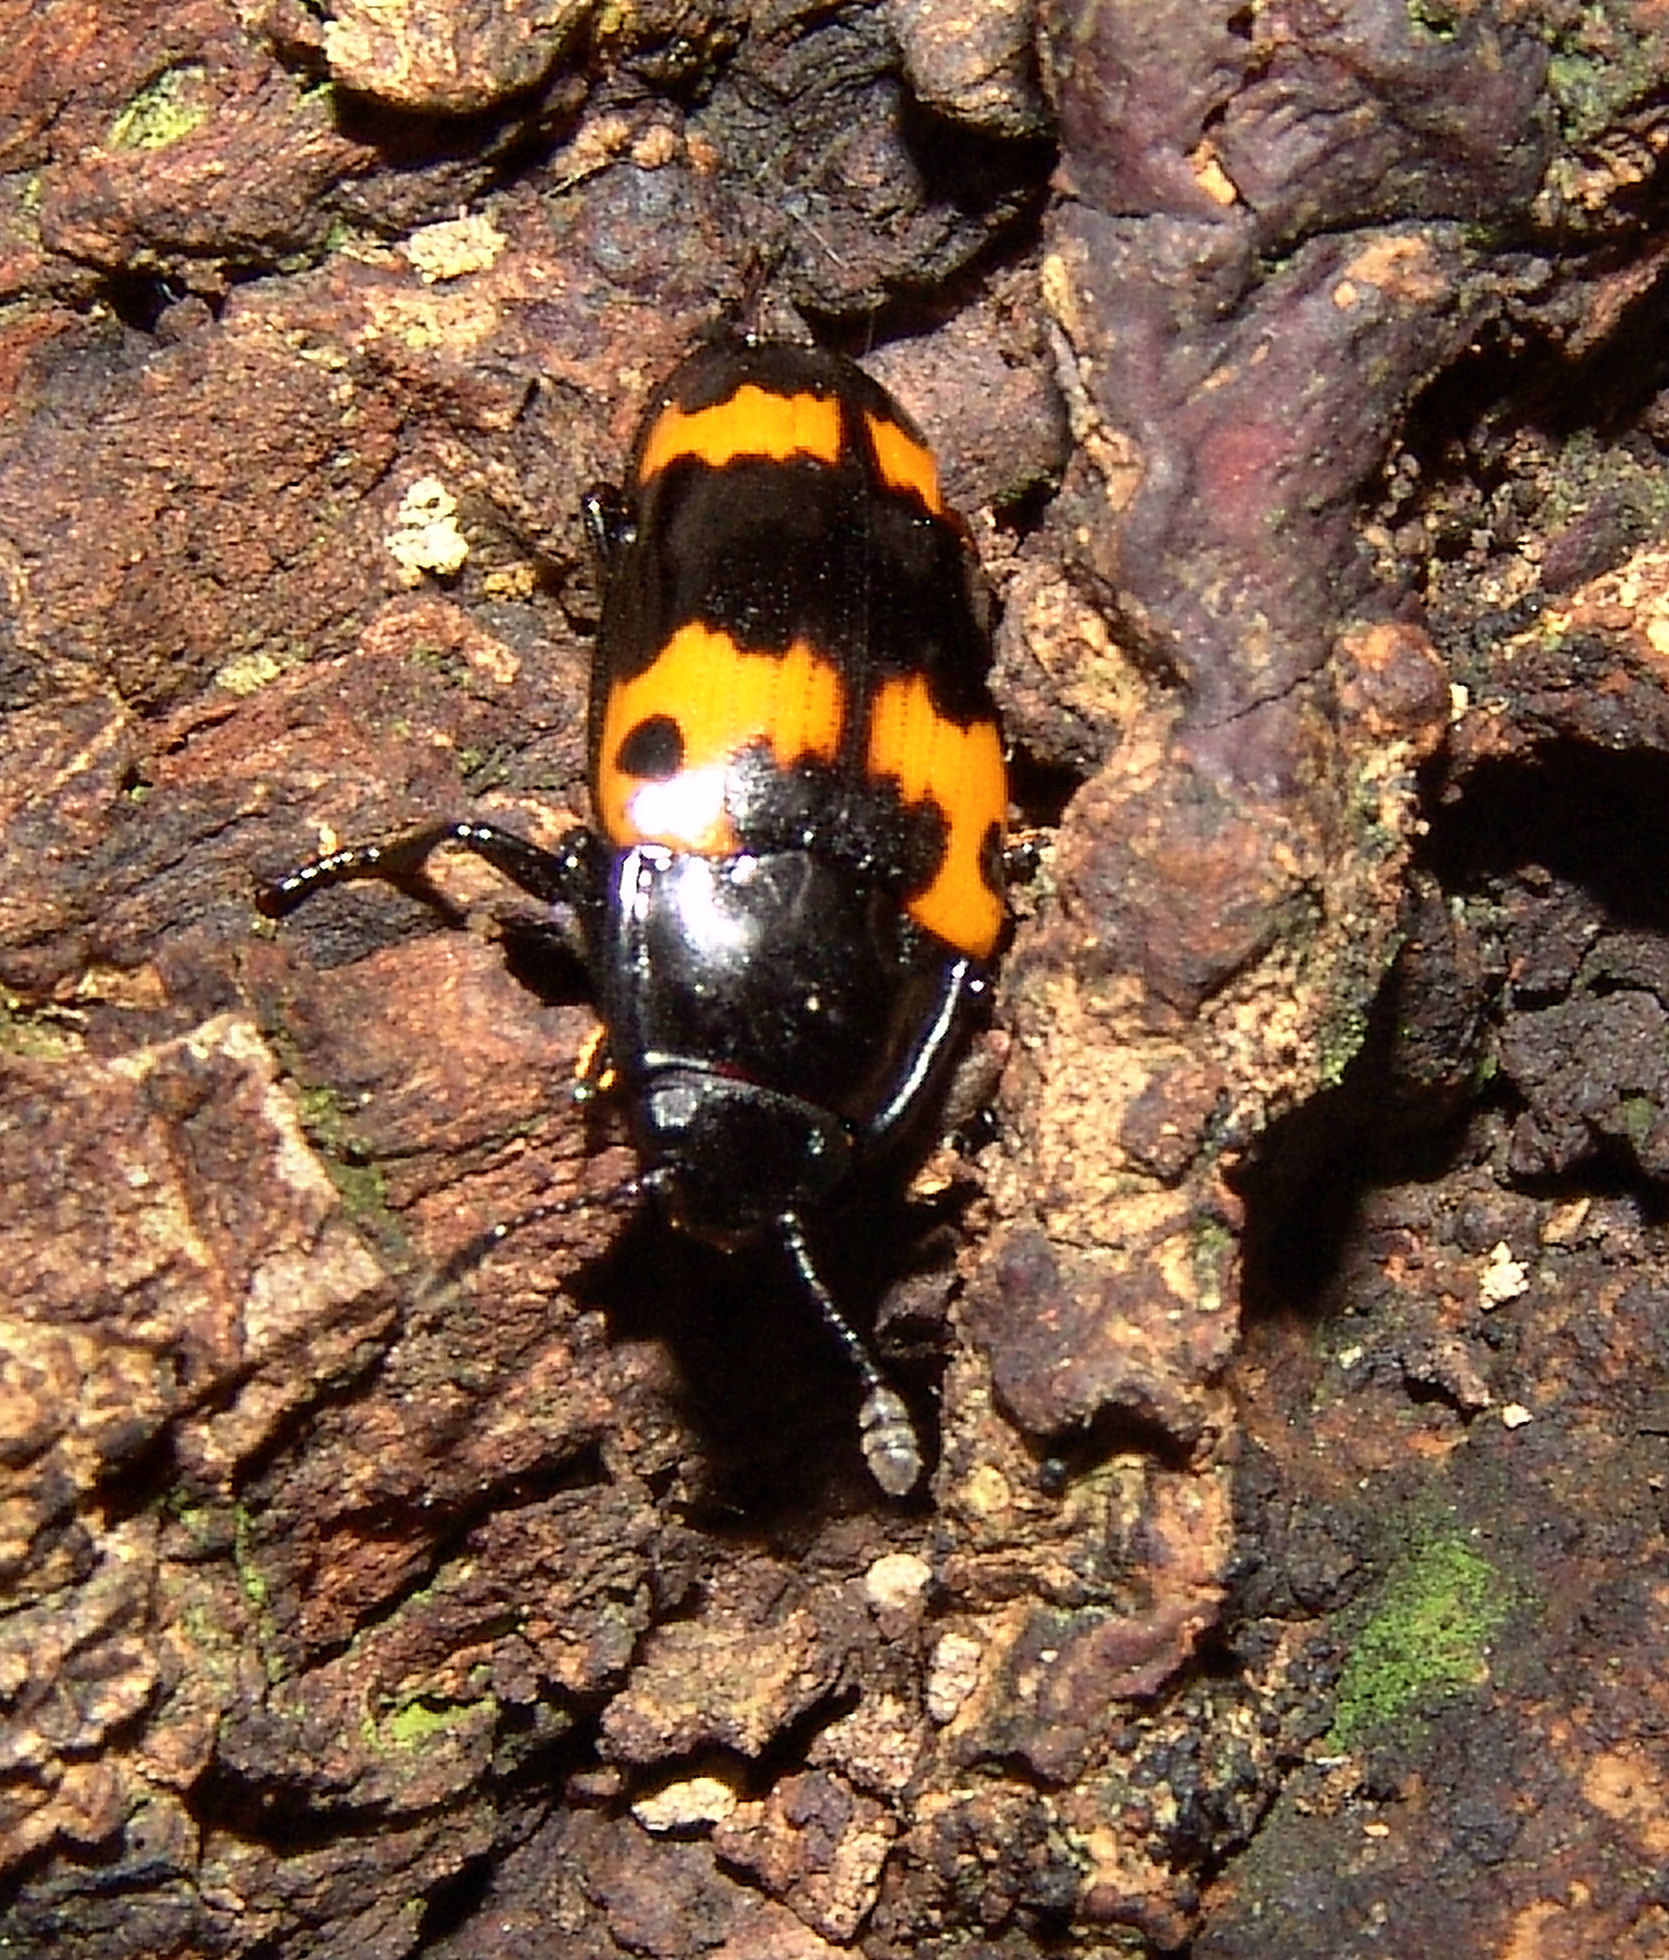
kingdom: Animalia
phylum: Arthropoda
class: Insecta
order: Coleoptera
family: Erotylidae
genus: Megalodacne
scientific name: Megalodacne fasciata
